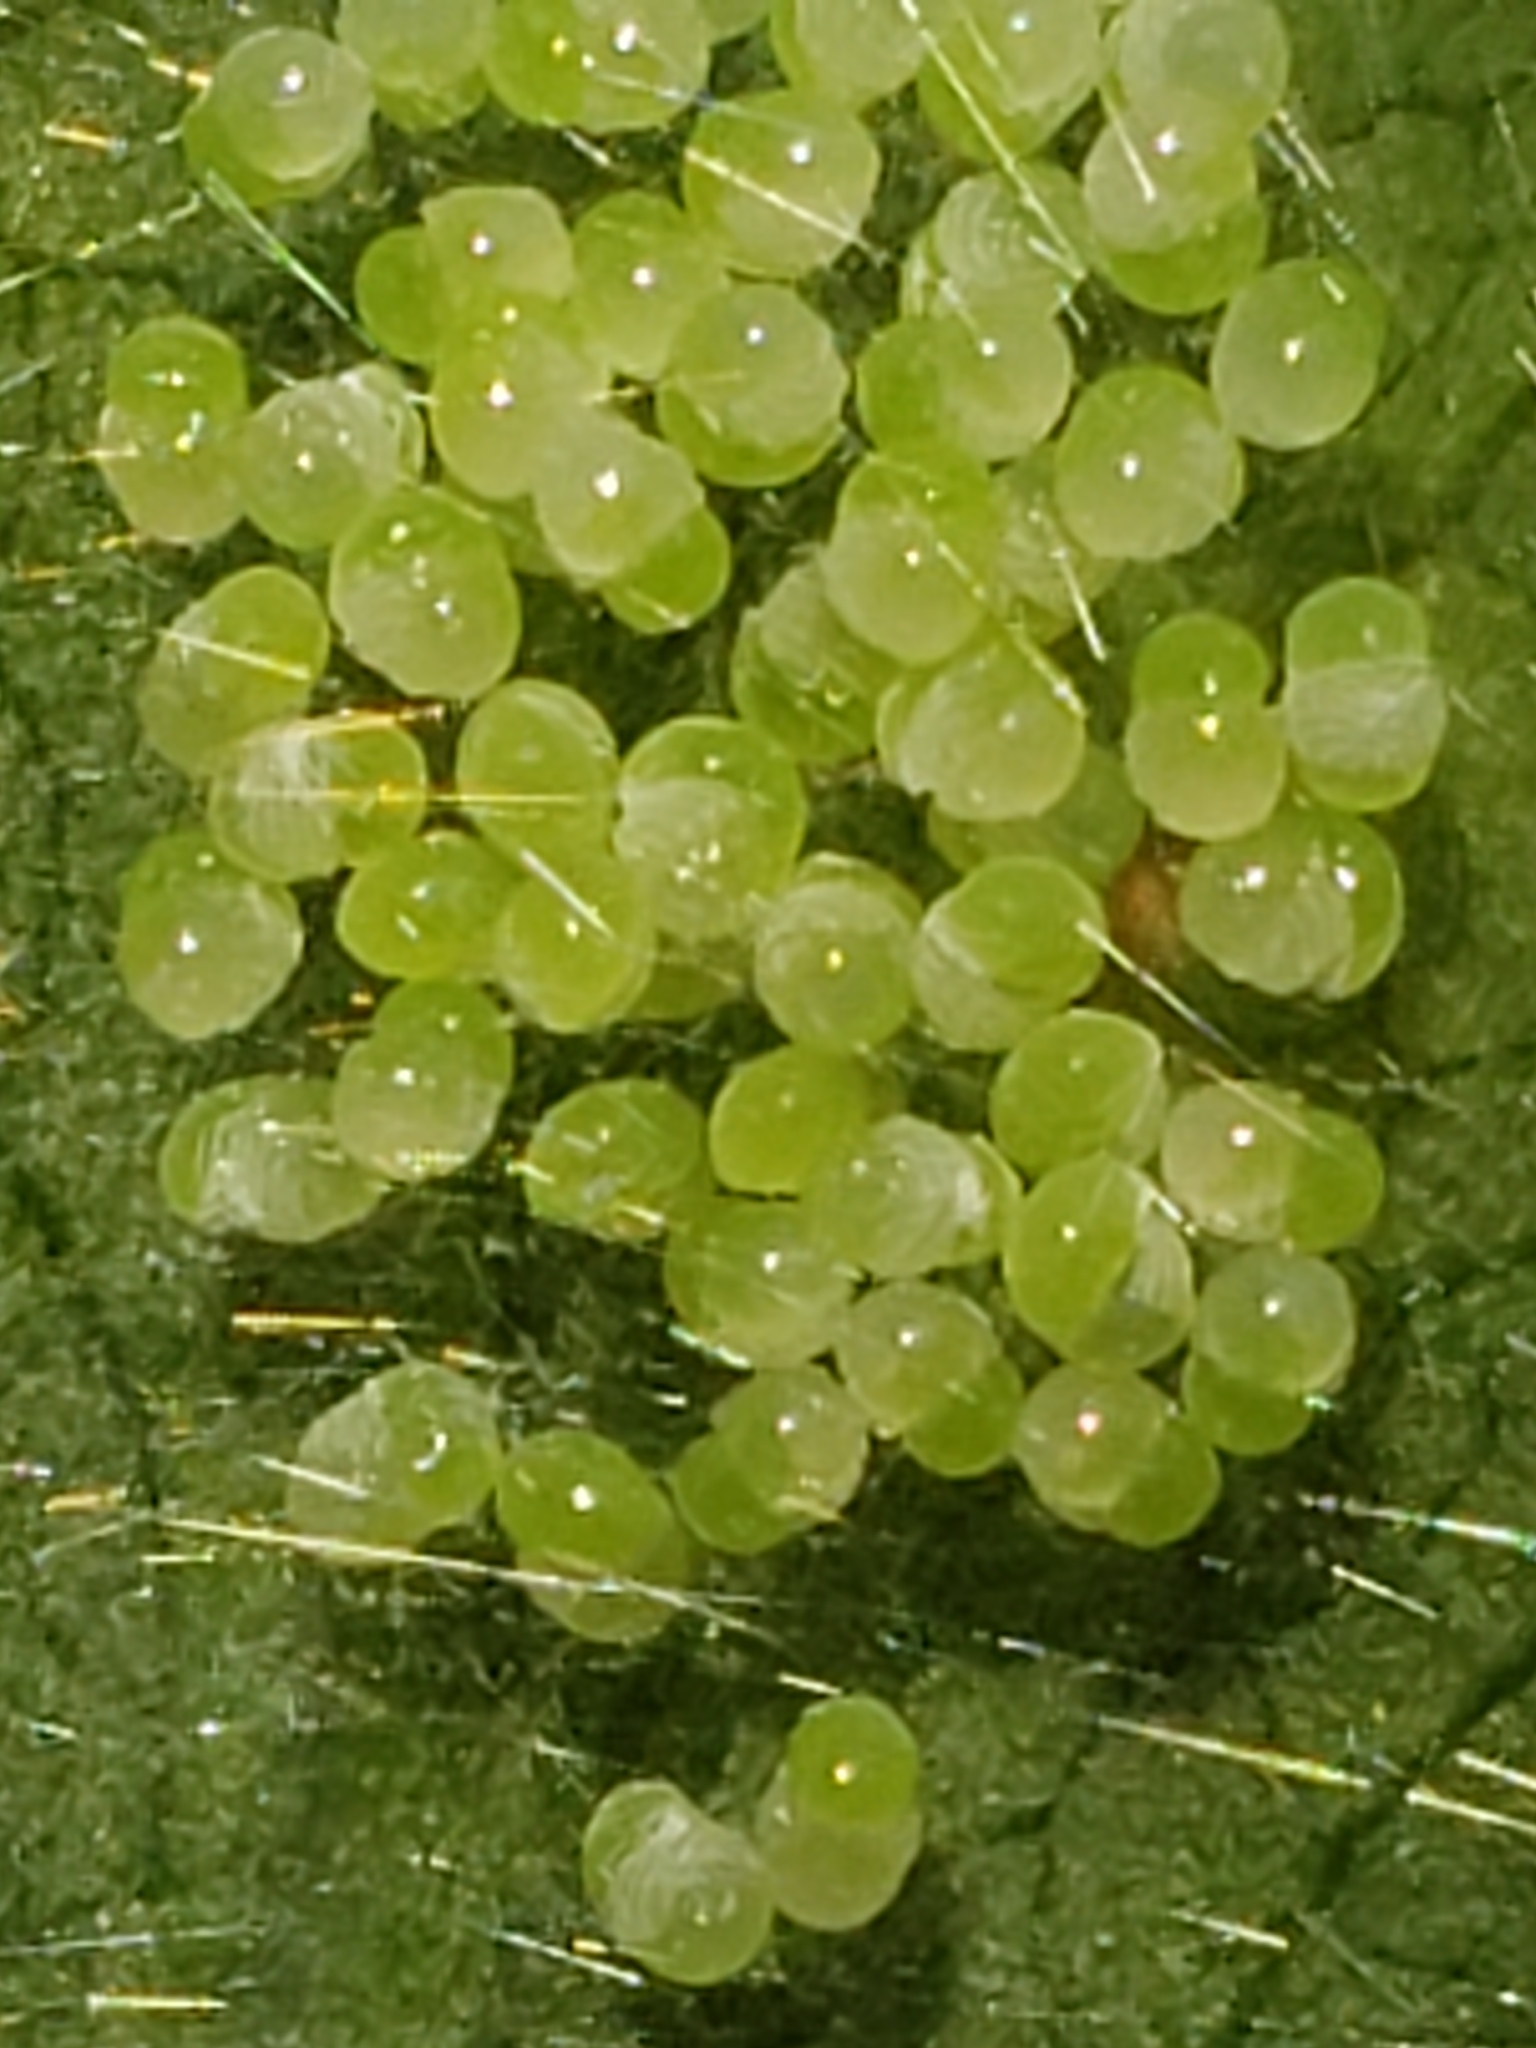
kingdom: Animalia
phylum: Arthropoda
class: Arachnida
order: Araneae
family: Salticidae
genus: Lyssomanes
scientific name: Lyssomanes viridis
